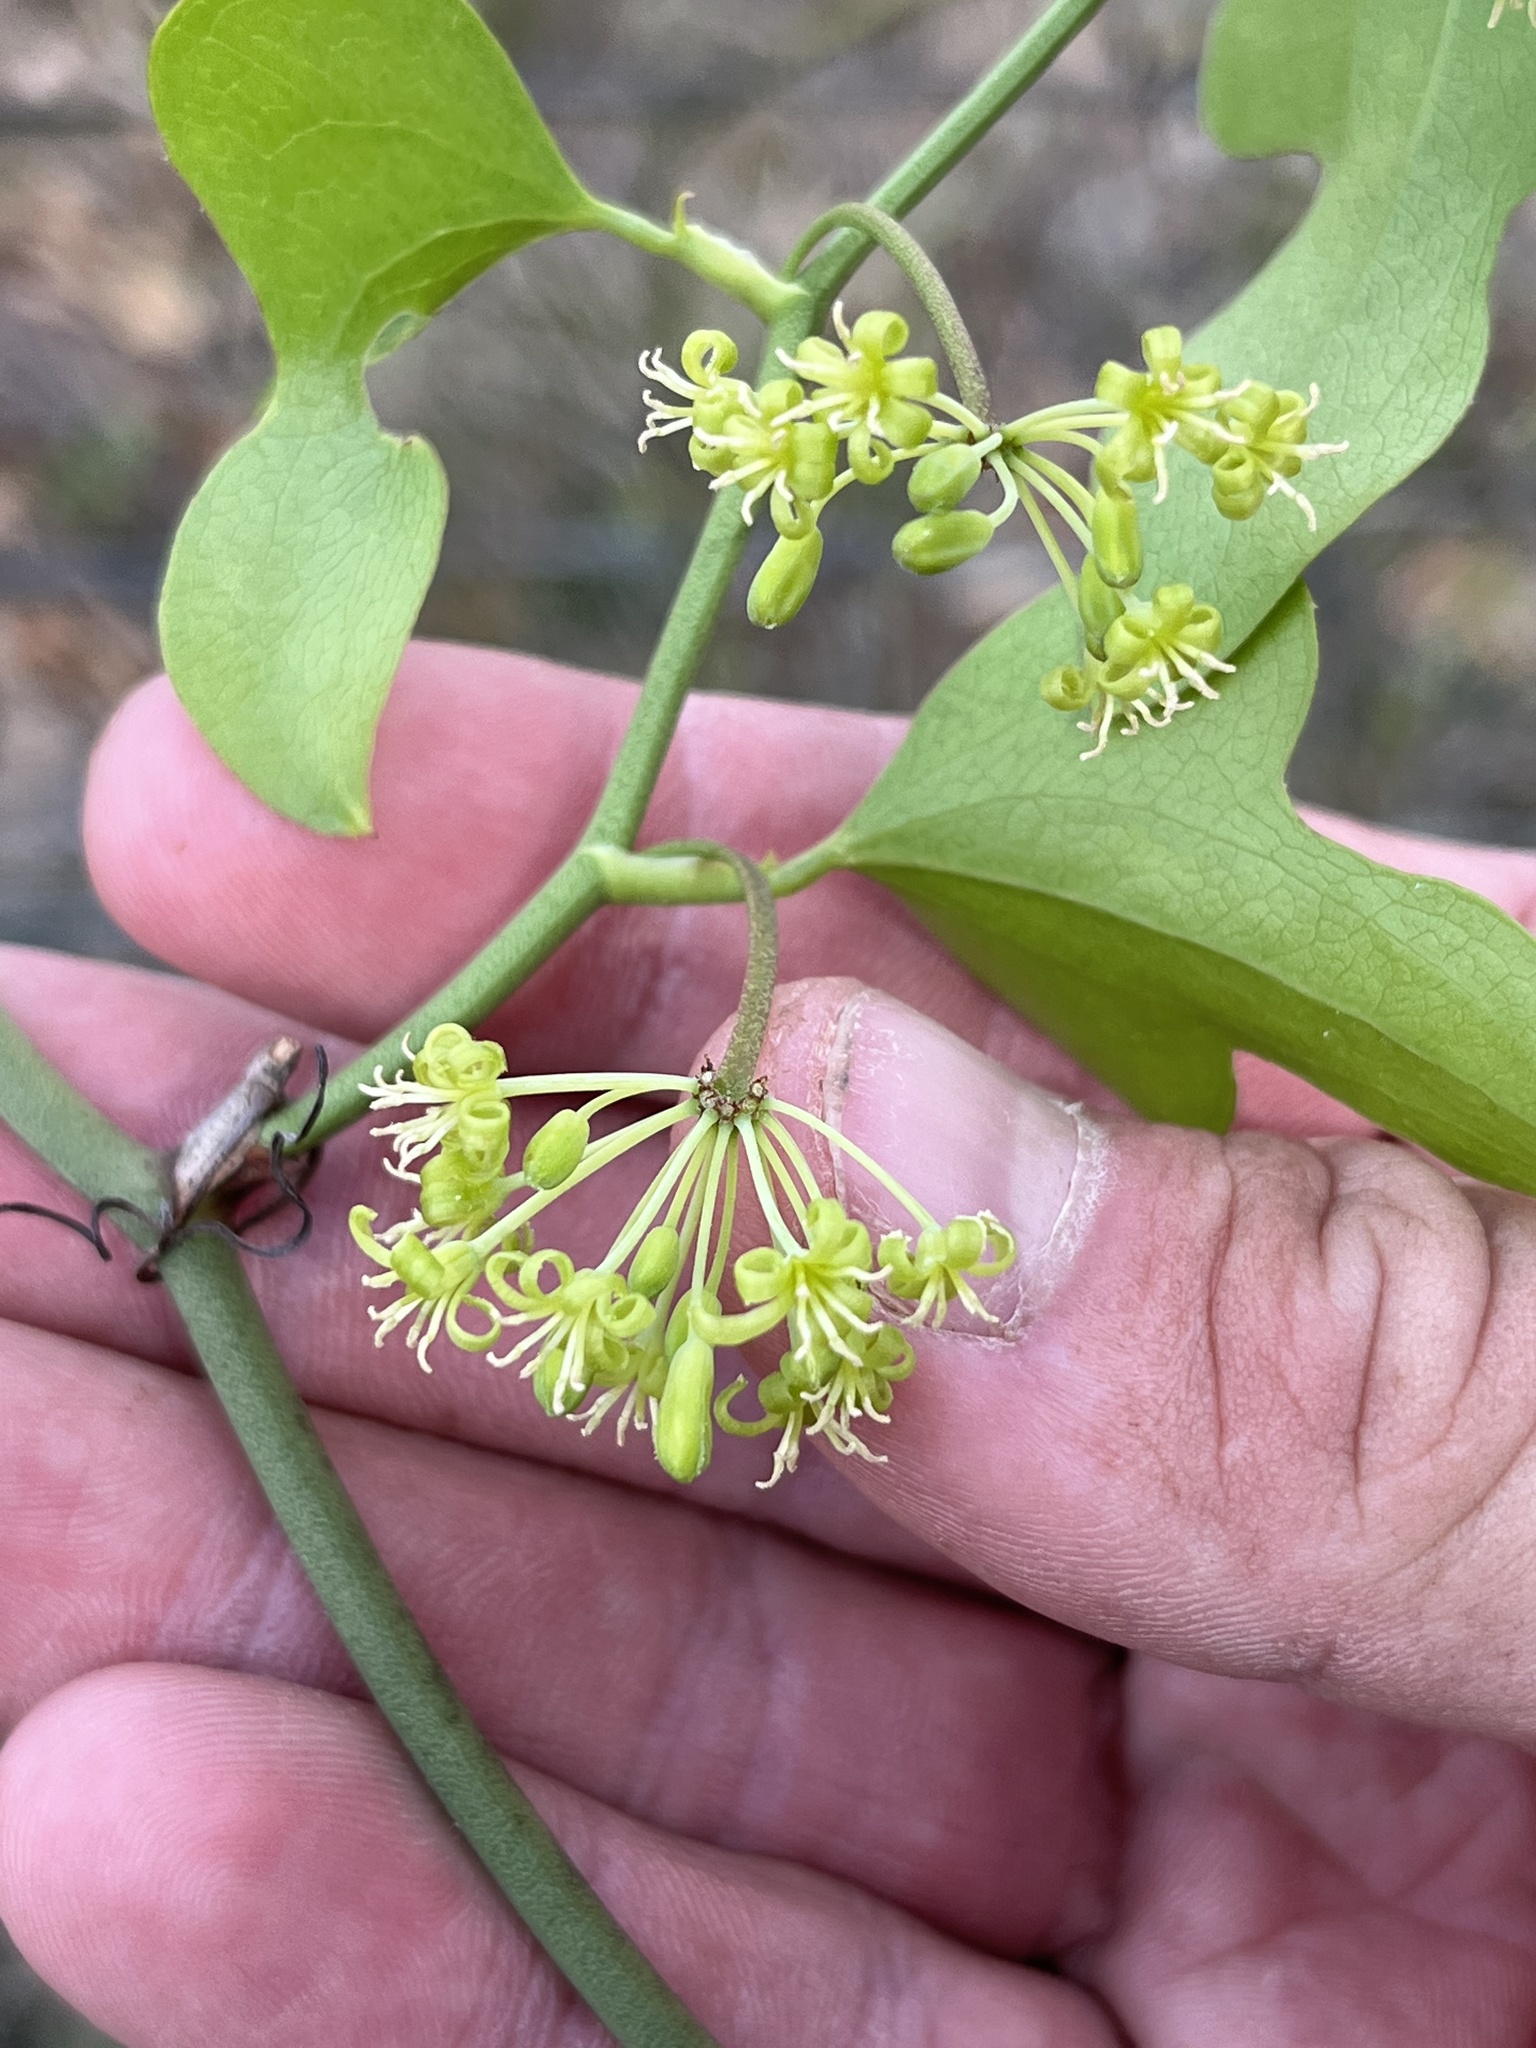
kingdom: Plantae
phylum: Tracheophyta
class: Liliopsida
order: Liliales
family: Smilacaceae
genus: Smilax
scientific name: Smilax bona-nox
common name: Catbrier
